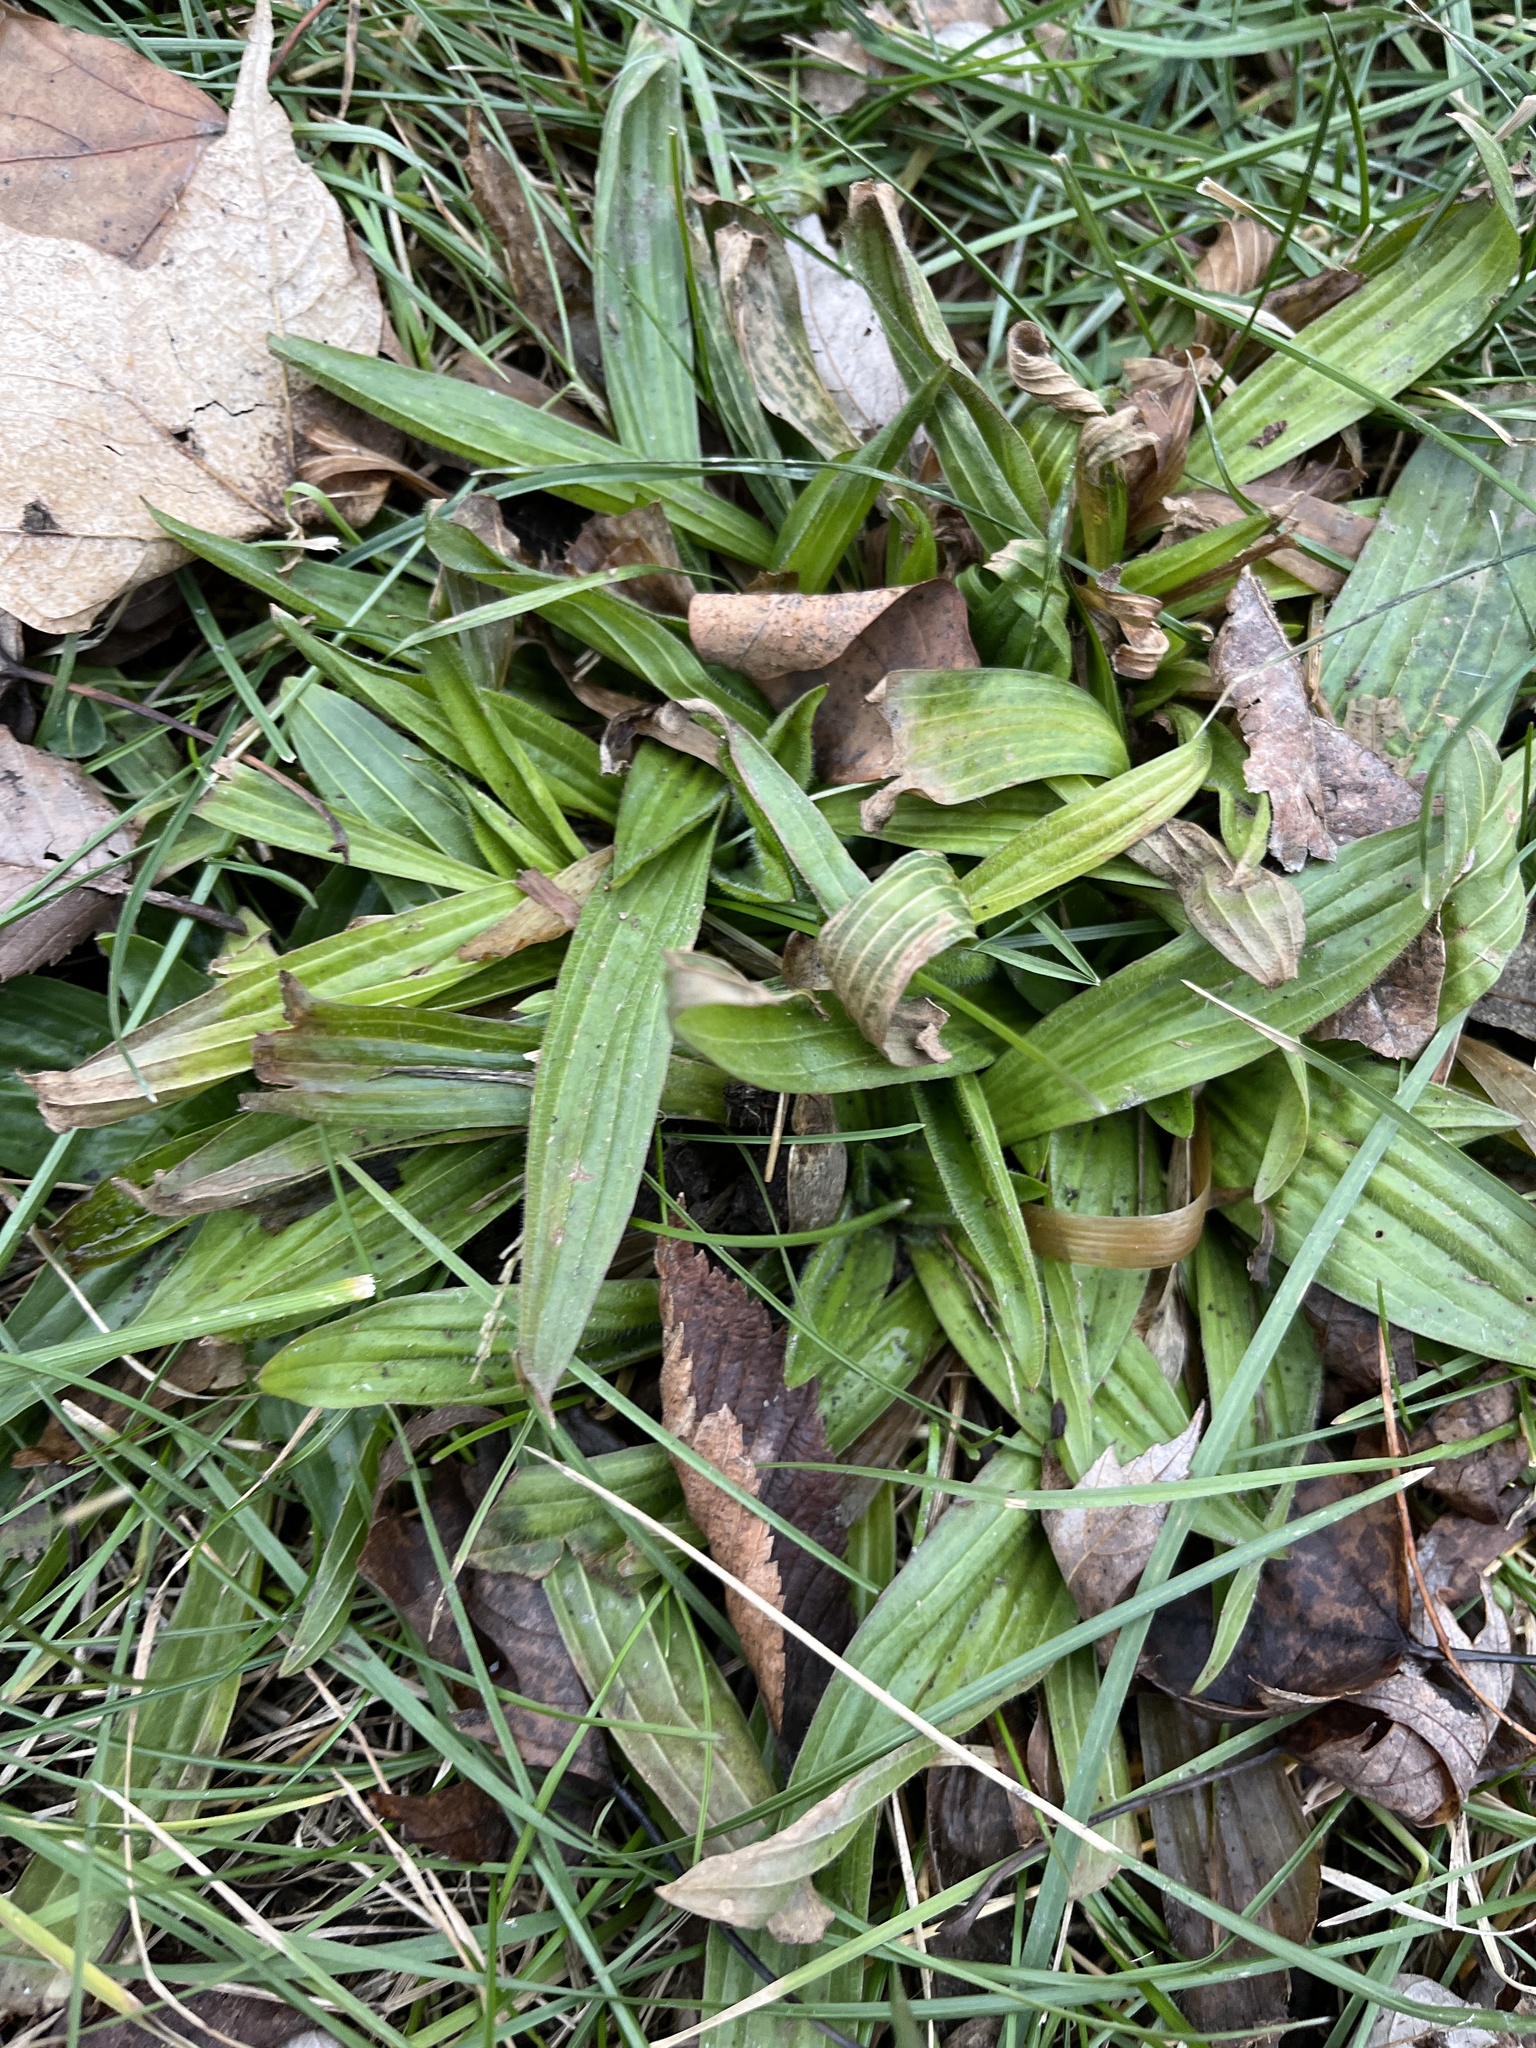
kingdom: Plantae
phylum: Tracheophyta
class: Magnoliopsida
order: Lamiales
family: Plantaginaceae
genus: Plantago
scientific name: Plantago lanceolata
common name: Ribwort plantain
